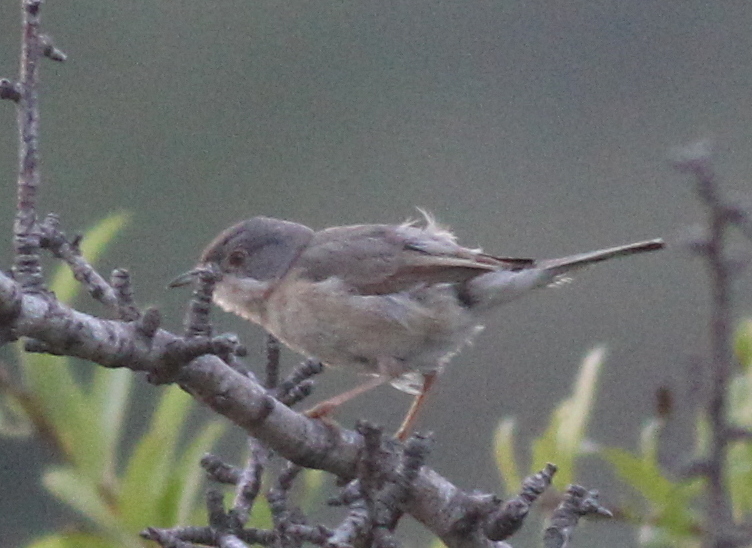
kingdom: Animalia
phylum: Chordata
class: Aves
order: Passeriformes
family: Sylviidae
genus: Curruca
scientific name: Curruca cantillans
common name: Subalpine warbler
